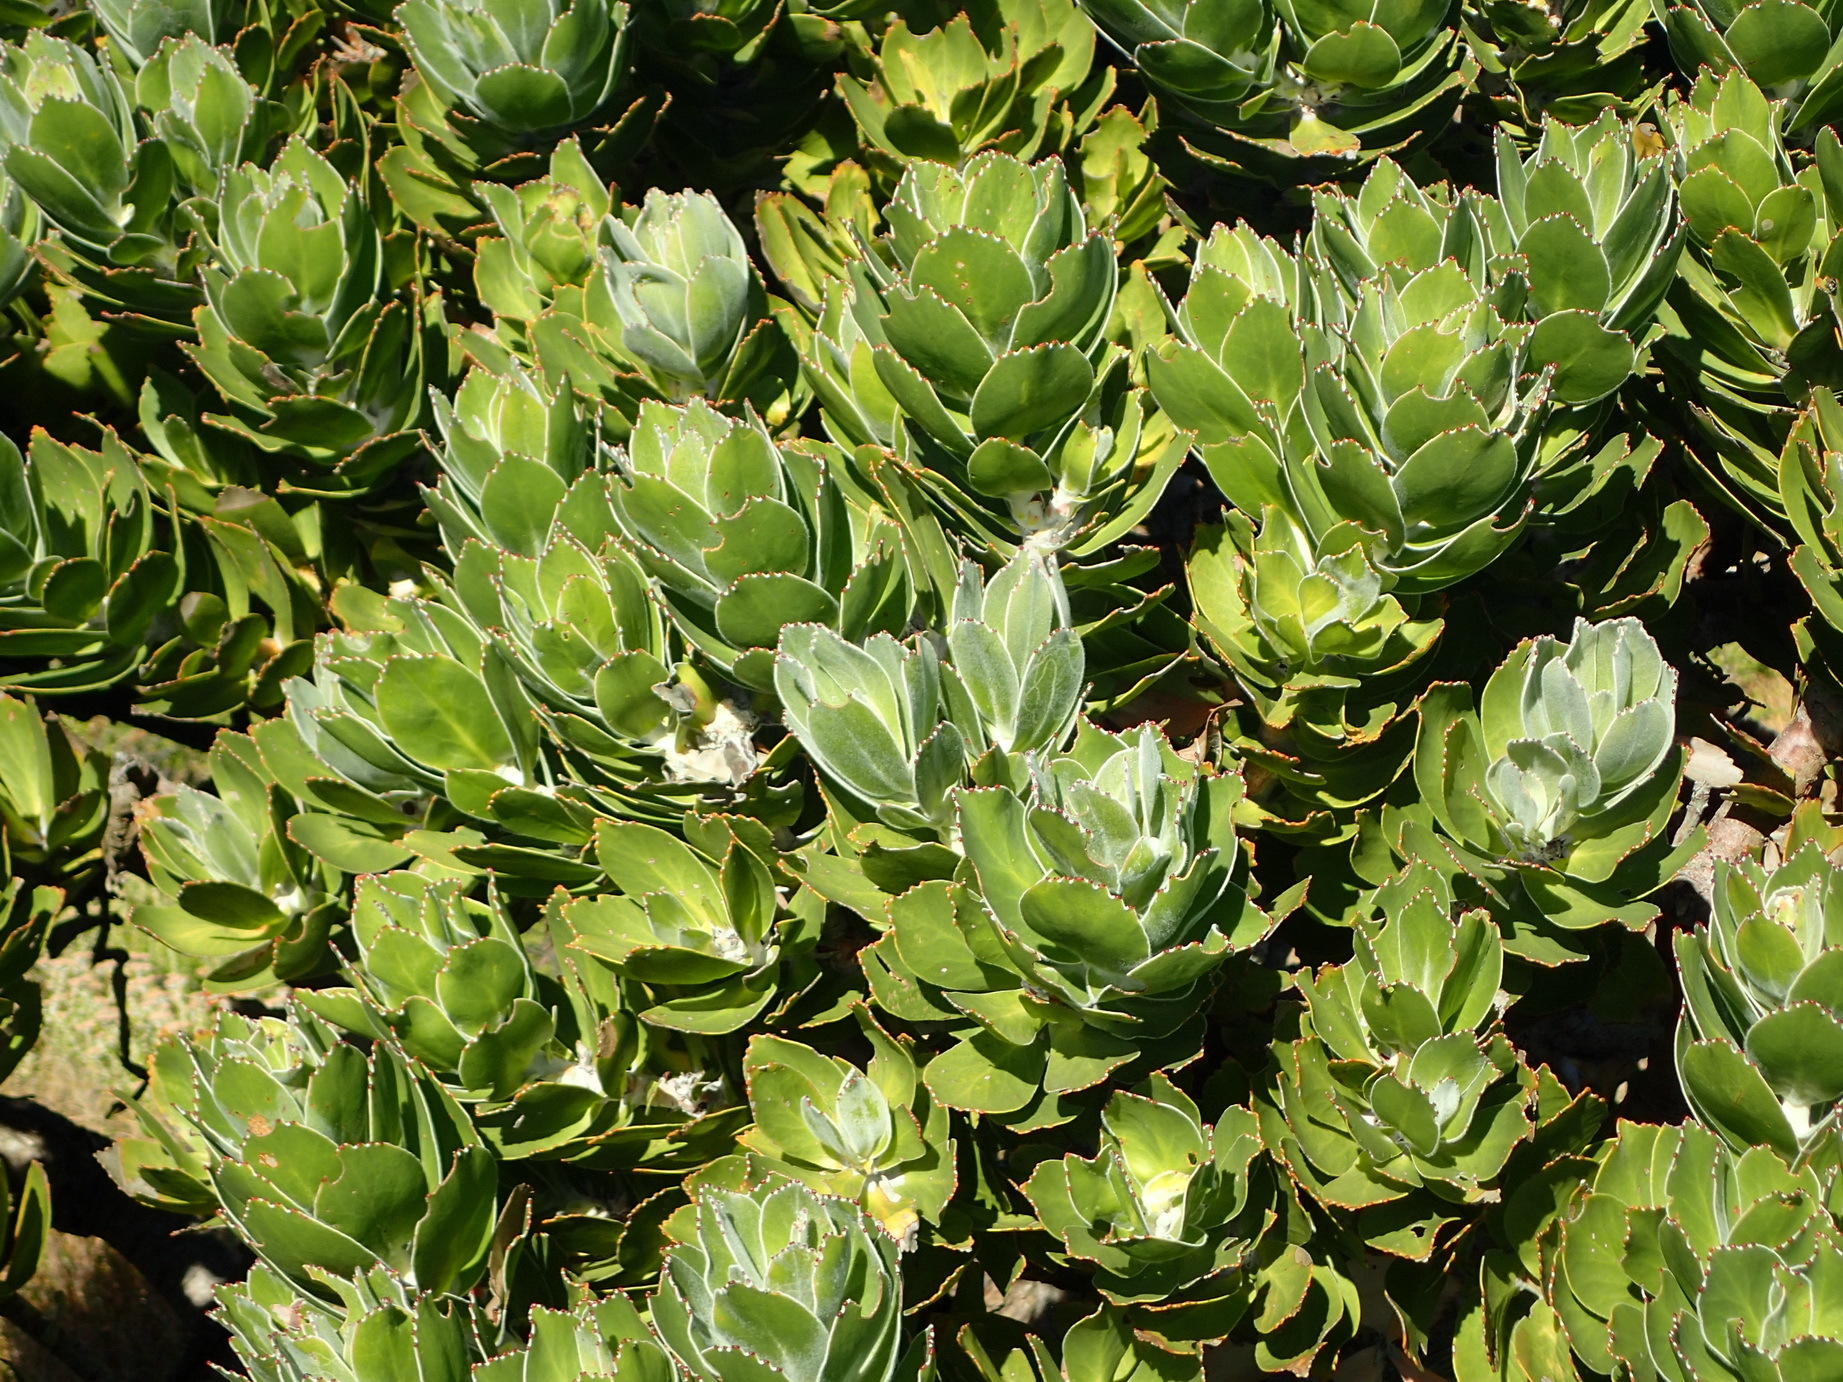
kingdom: Plantae
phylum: Tracheophyta
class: Magnoliopsida
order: Proteales
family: Proteaceae
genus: Leucospermum
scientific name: Leucospermum conocarpodendron
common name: Tree pincushion
